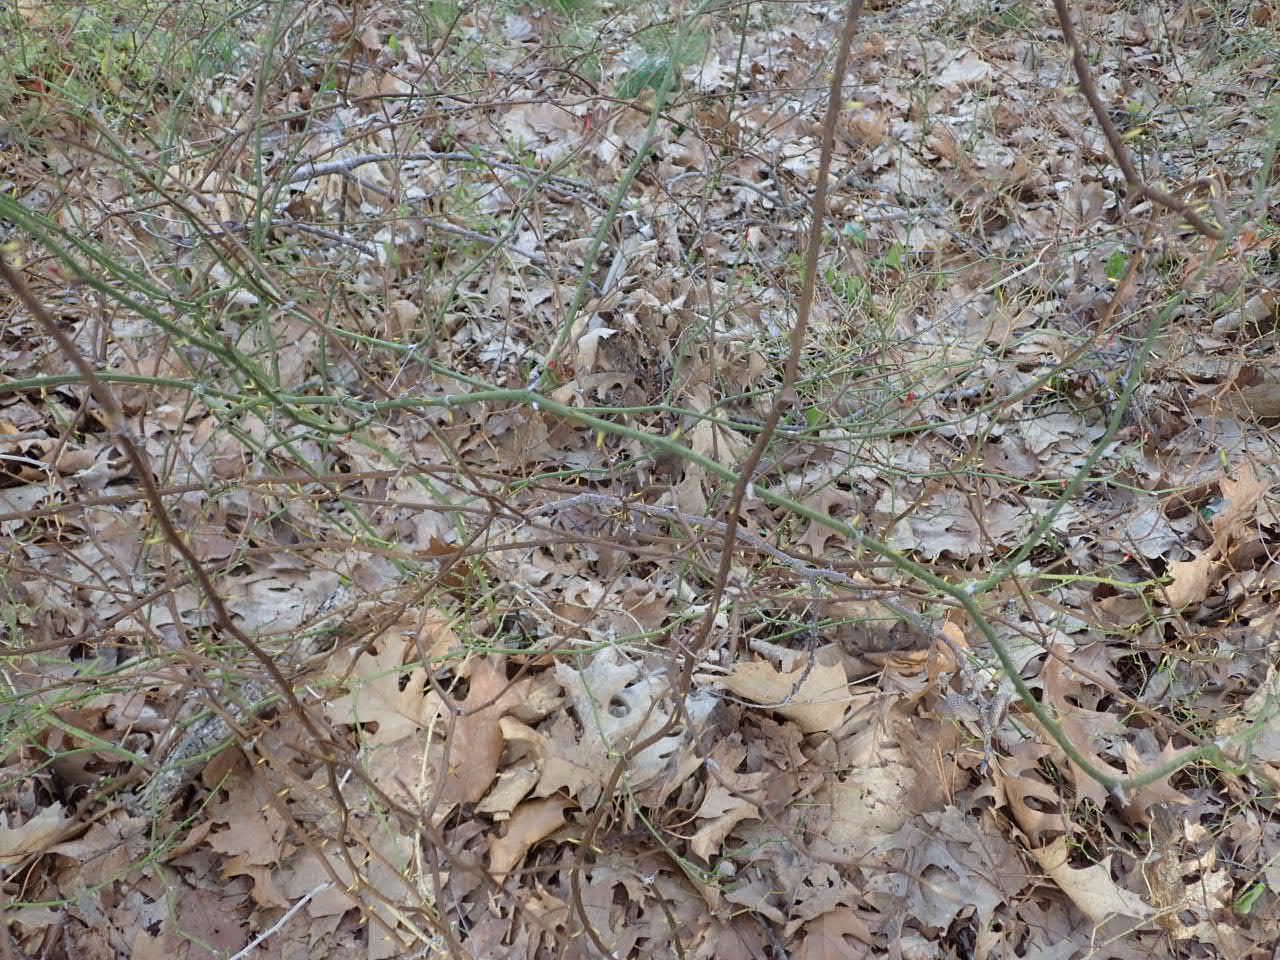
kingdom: Plantae
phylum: Tracheophyta
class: Liliopsida
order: Liliales
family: Smilacaceae
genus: Smilax
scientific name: Smilax rotundifolia
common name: Bullbriar
